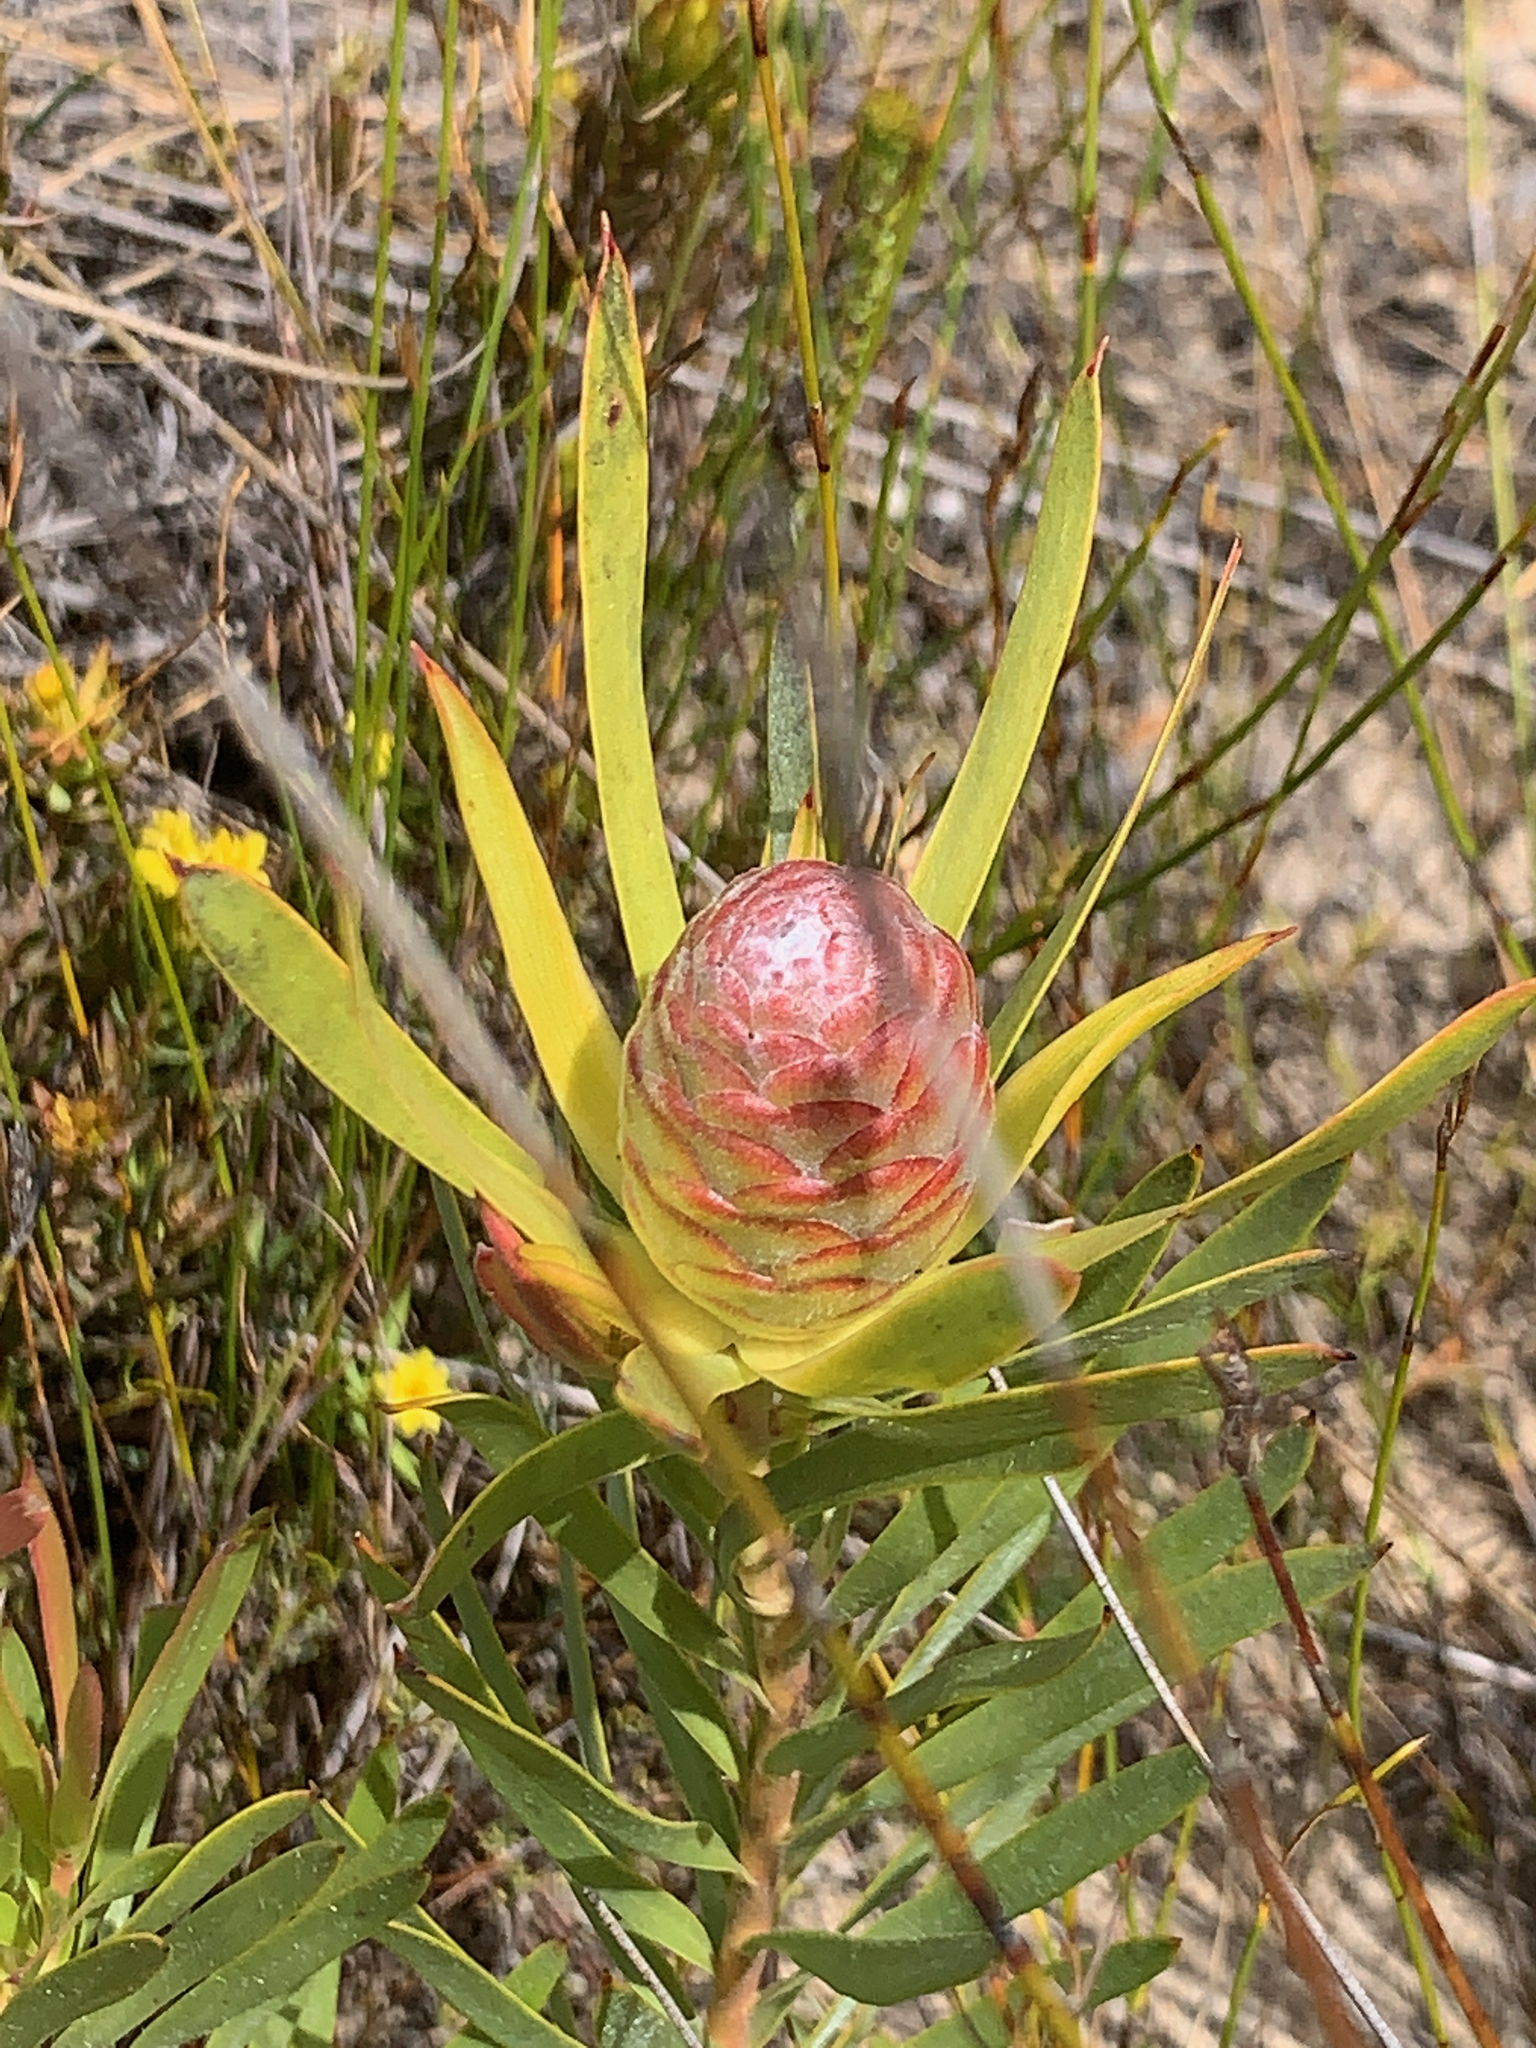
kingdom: Plantae
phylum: Tracheophyta
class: Magnoliopsida
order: Proteales
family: Proteaceae
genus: Leucadendron
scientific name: Leucadendron xanthoconus
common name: Sickle-leaf conebush
